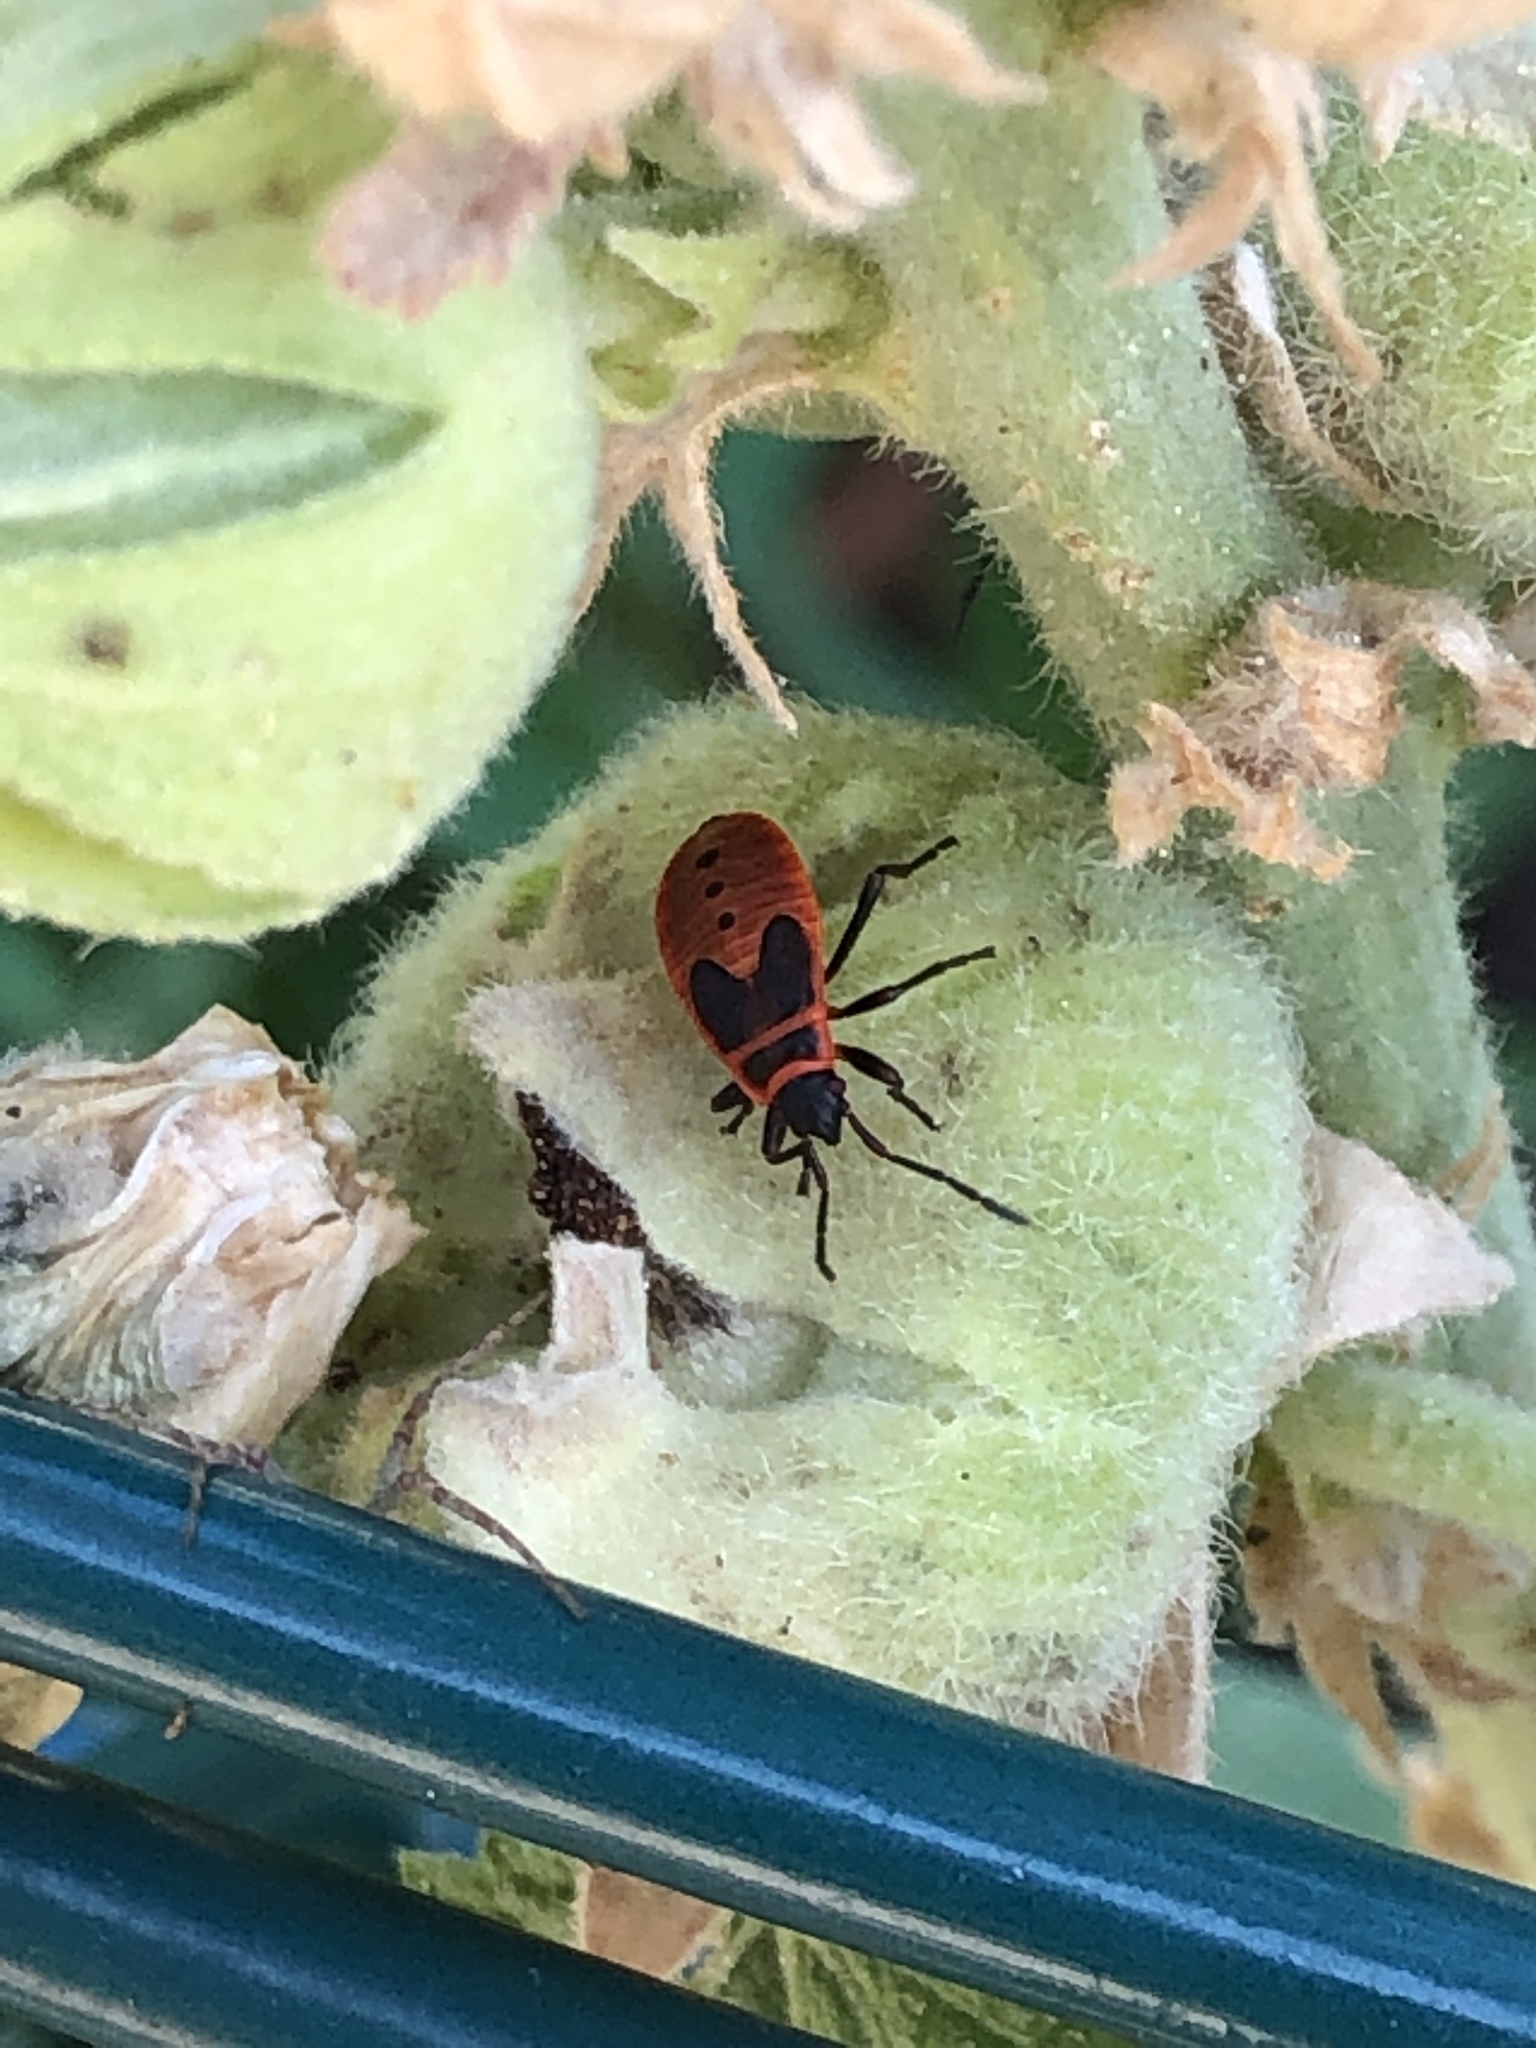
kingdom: Animalia
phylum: Arthropoda
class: Insecta
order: Hemiptera
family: Pyrrhocoridae
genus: Pyrrhocoris
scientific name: Pyrrhocoris apterus
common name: Firebug
